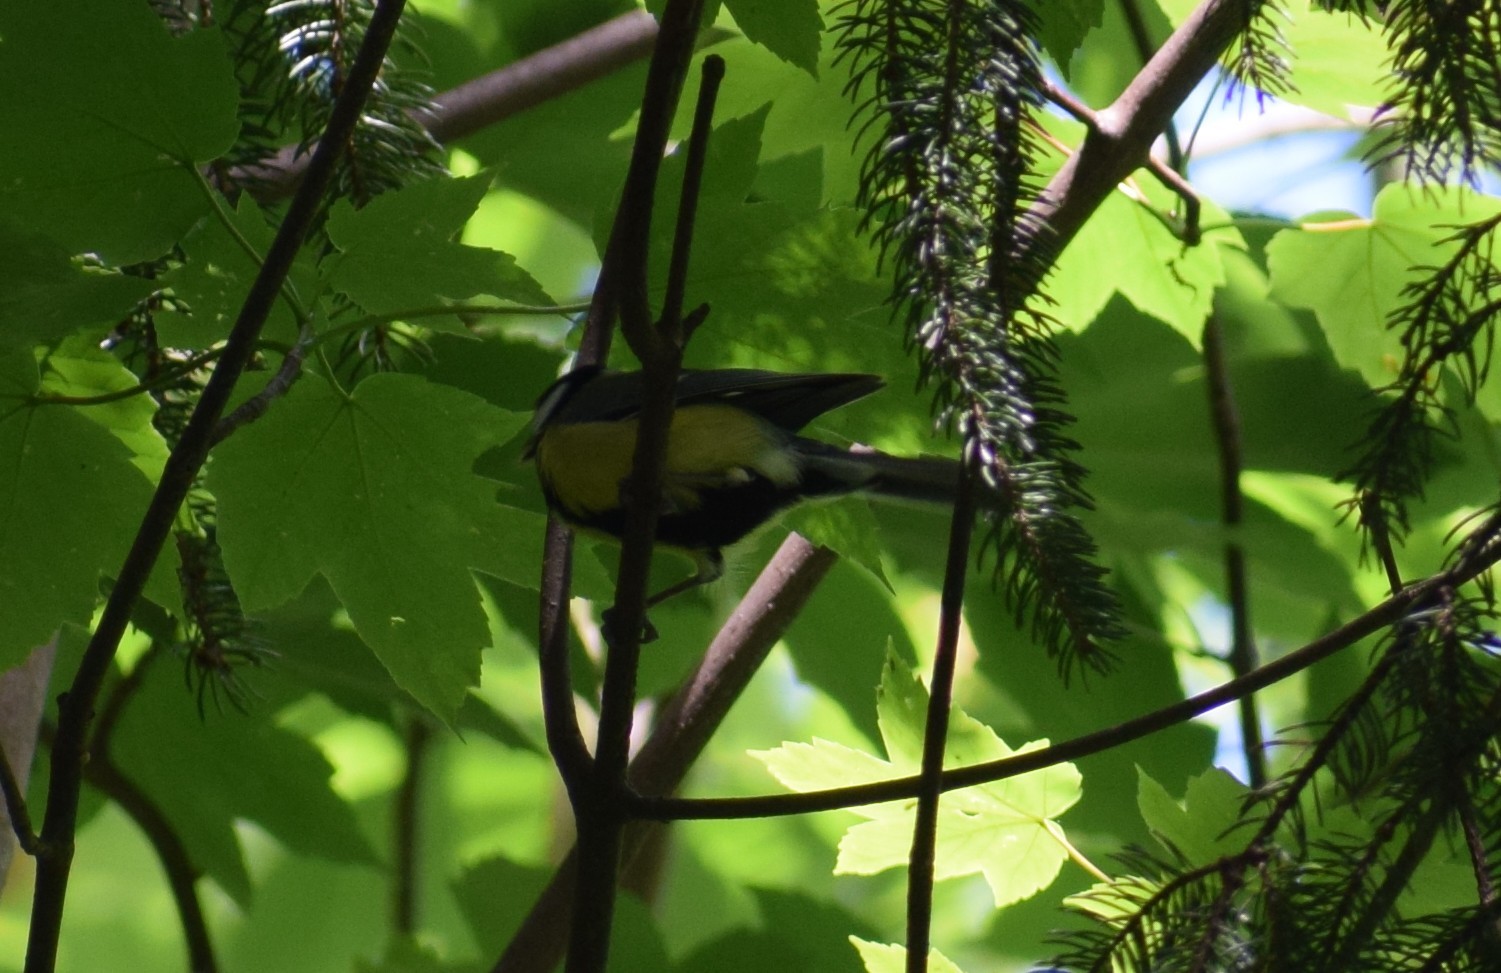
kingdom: Animalia
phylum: Chordata
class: Aves
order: Passeriformes
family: Paridae
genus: Parus
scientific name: Parus major
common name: Great tit
